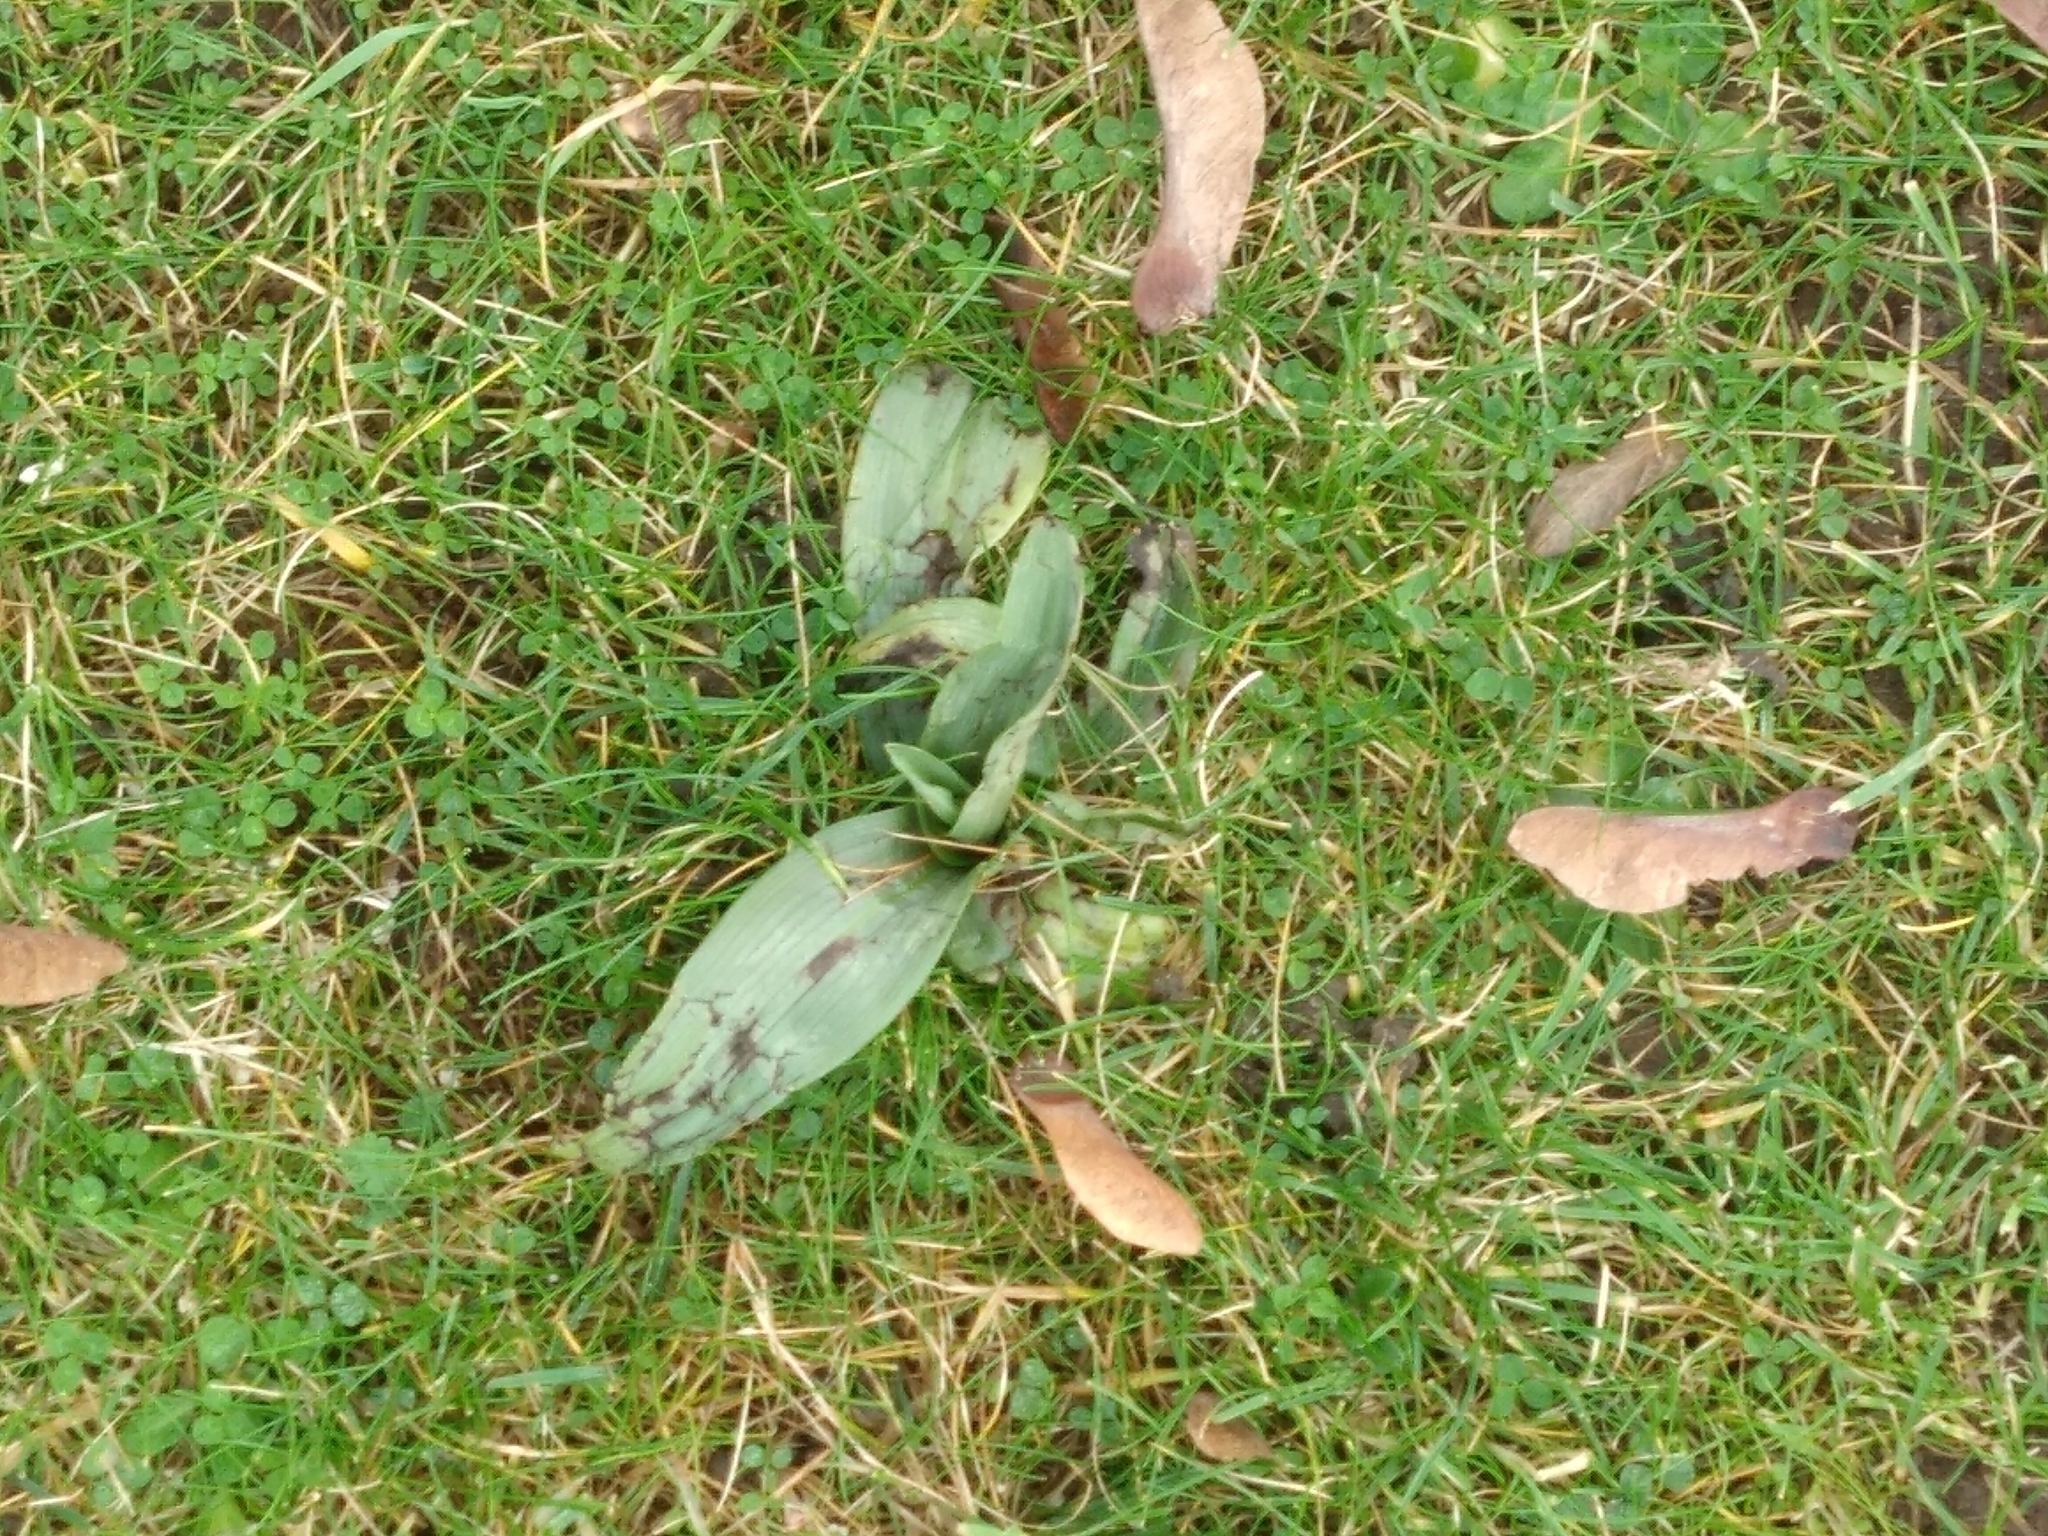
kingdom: Plantae
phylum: Tracheophyta
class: Liliopsida
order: Asparagales
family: Orchidaceae
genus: Ophrys
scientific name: Ophrys apifera
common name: Bee orchid
